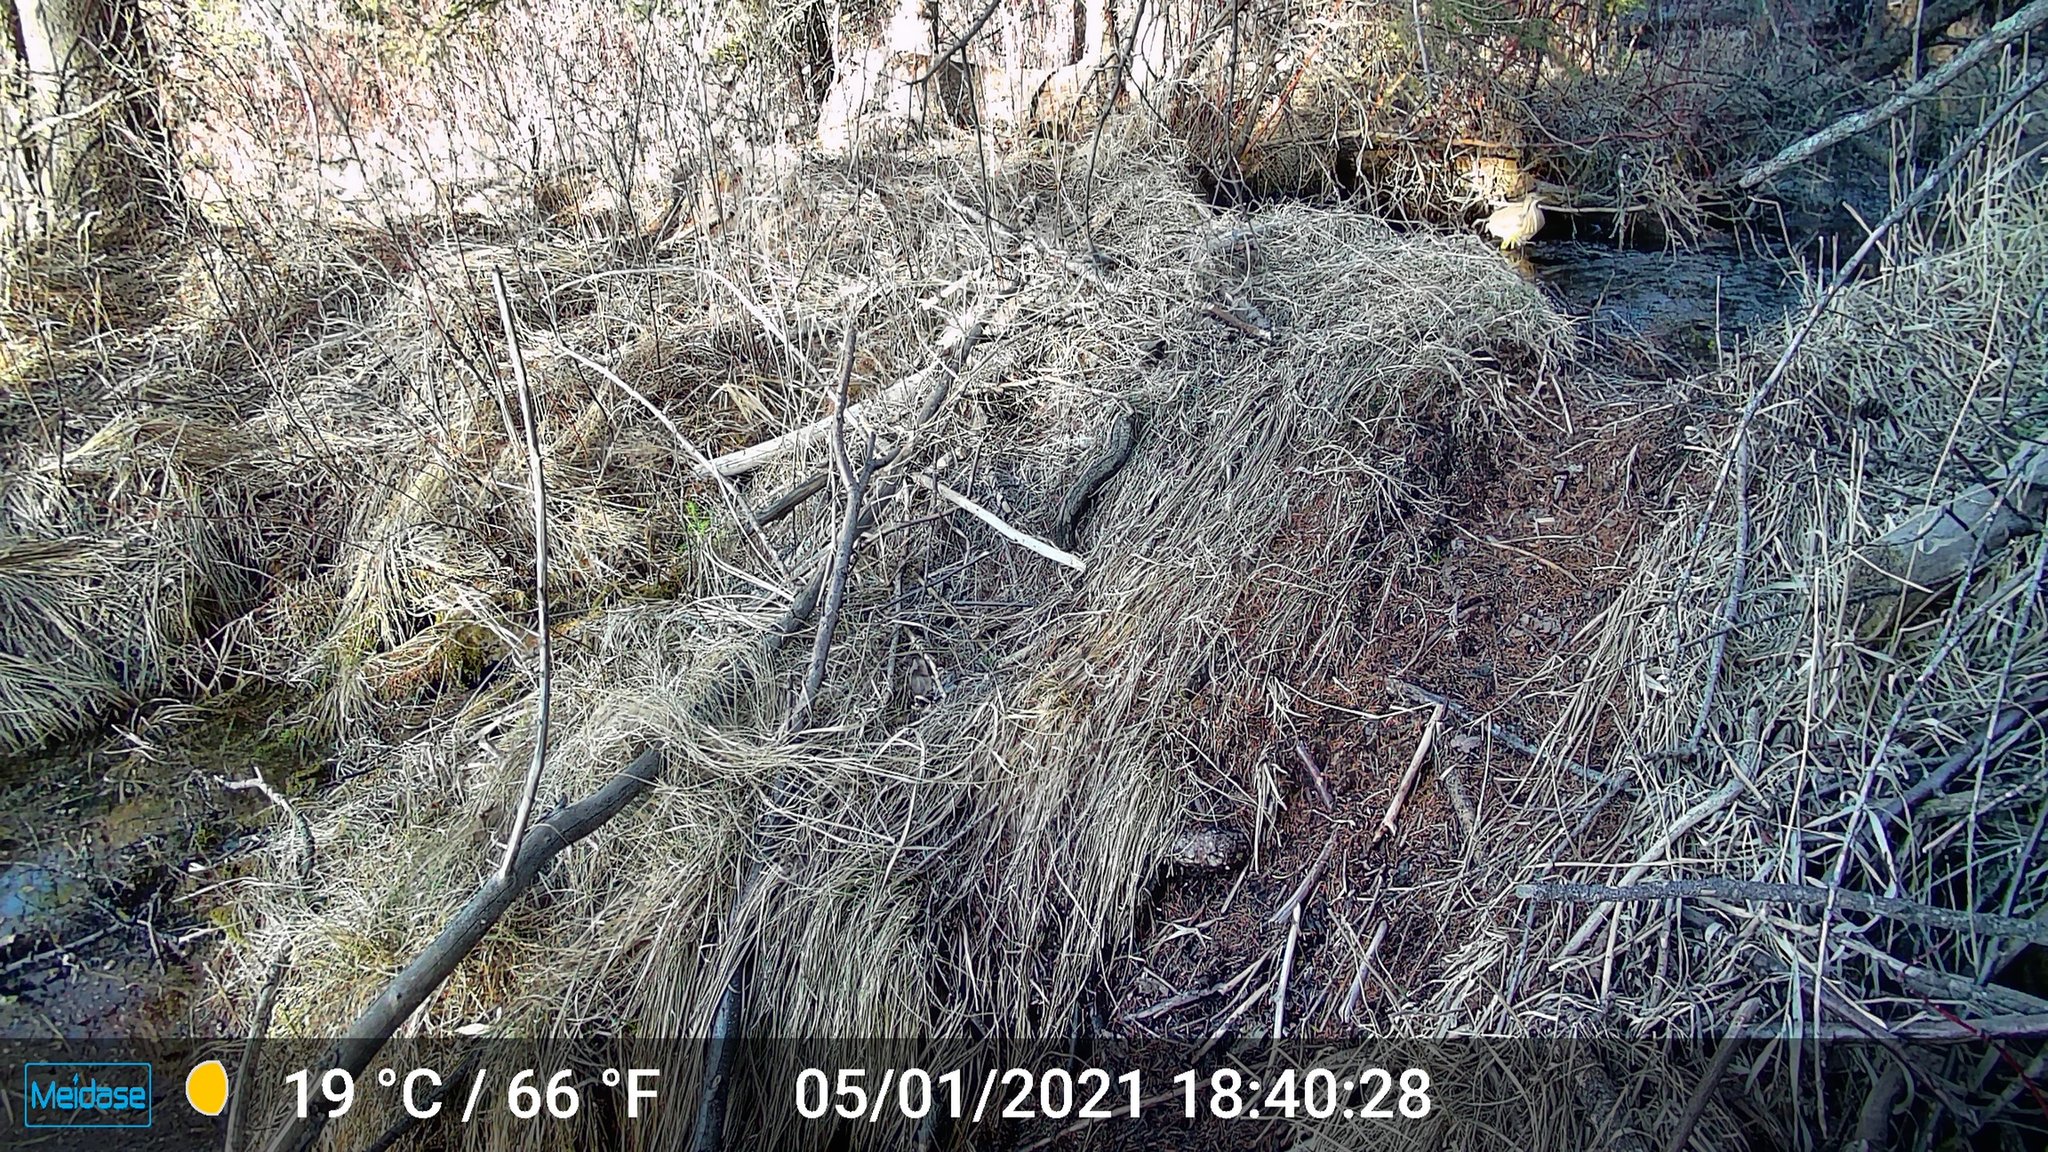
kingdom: Animalia
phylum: Chordata
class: Aves
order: Pelecaniformes
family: Ardeidae
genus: Botaurus
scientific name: Botaurus lentiginosus
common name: American bittern
